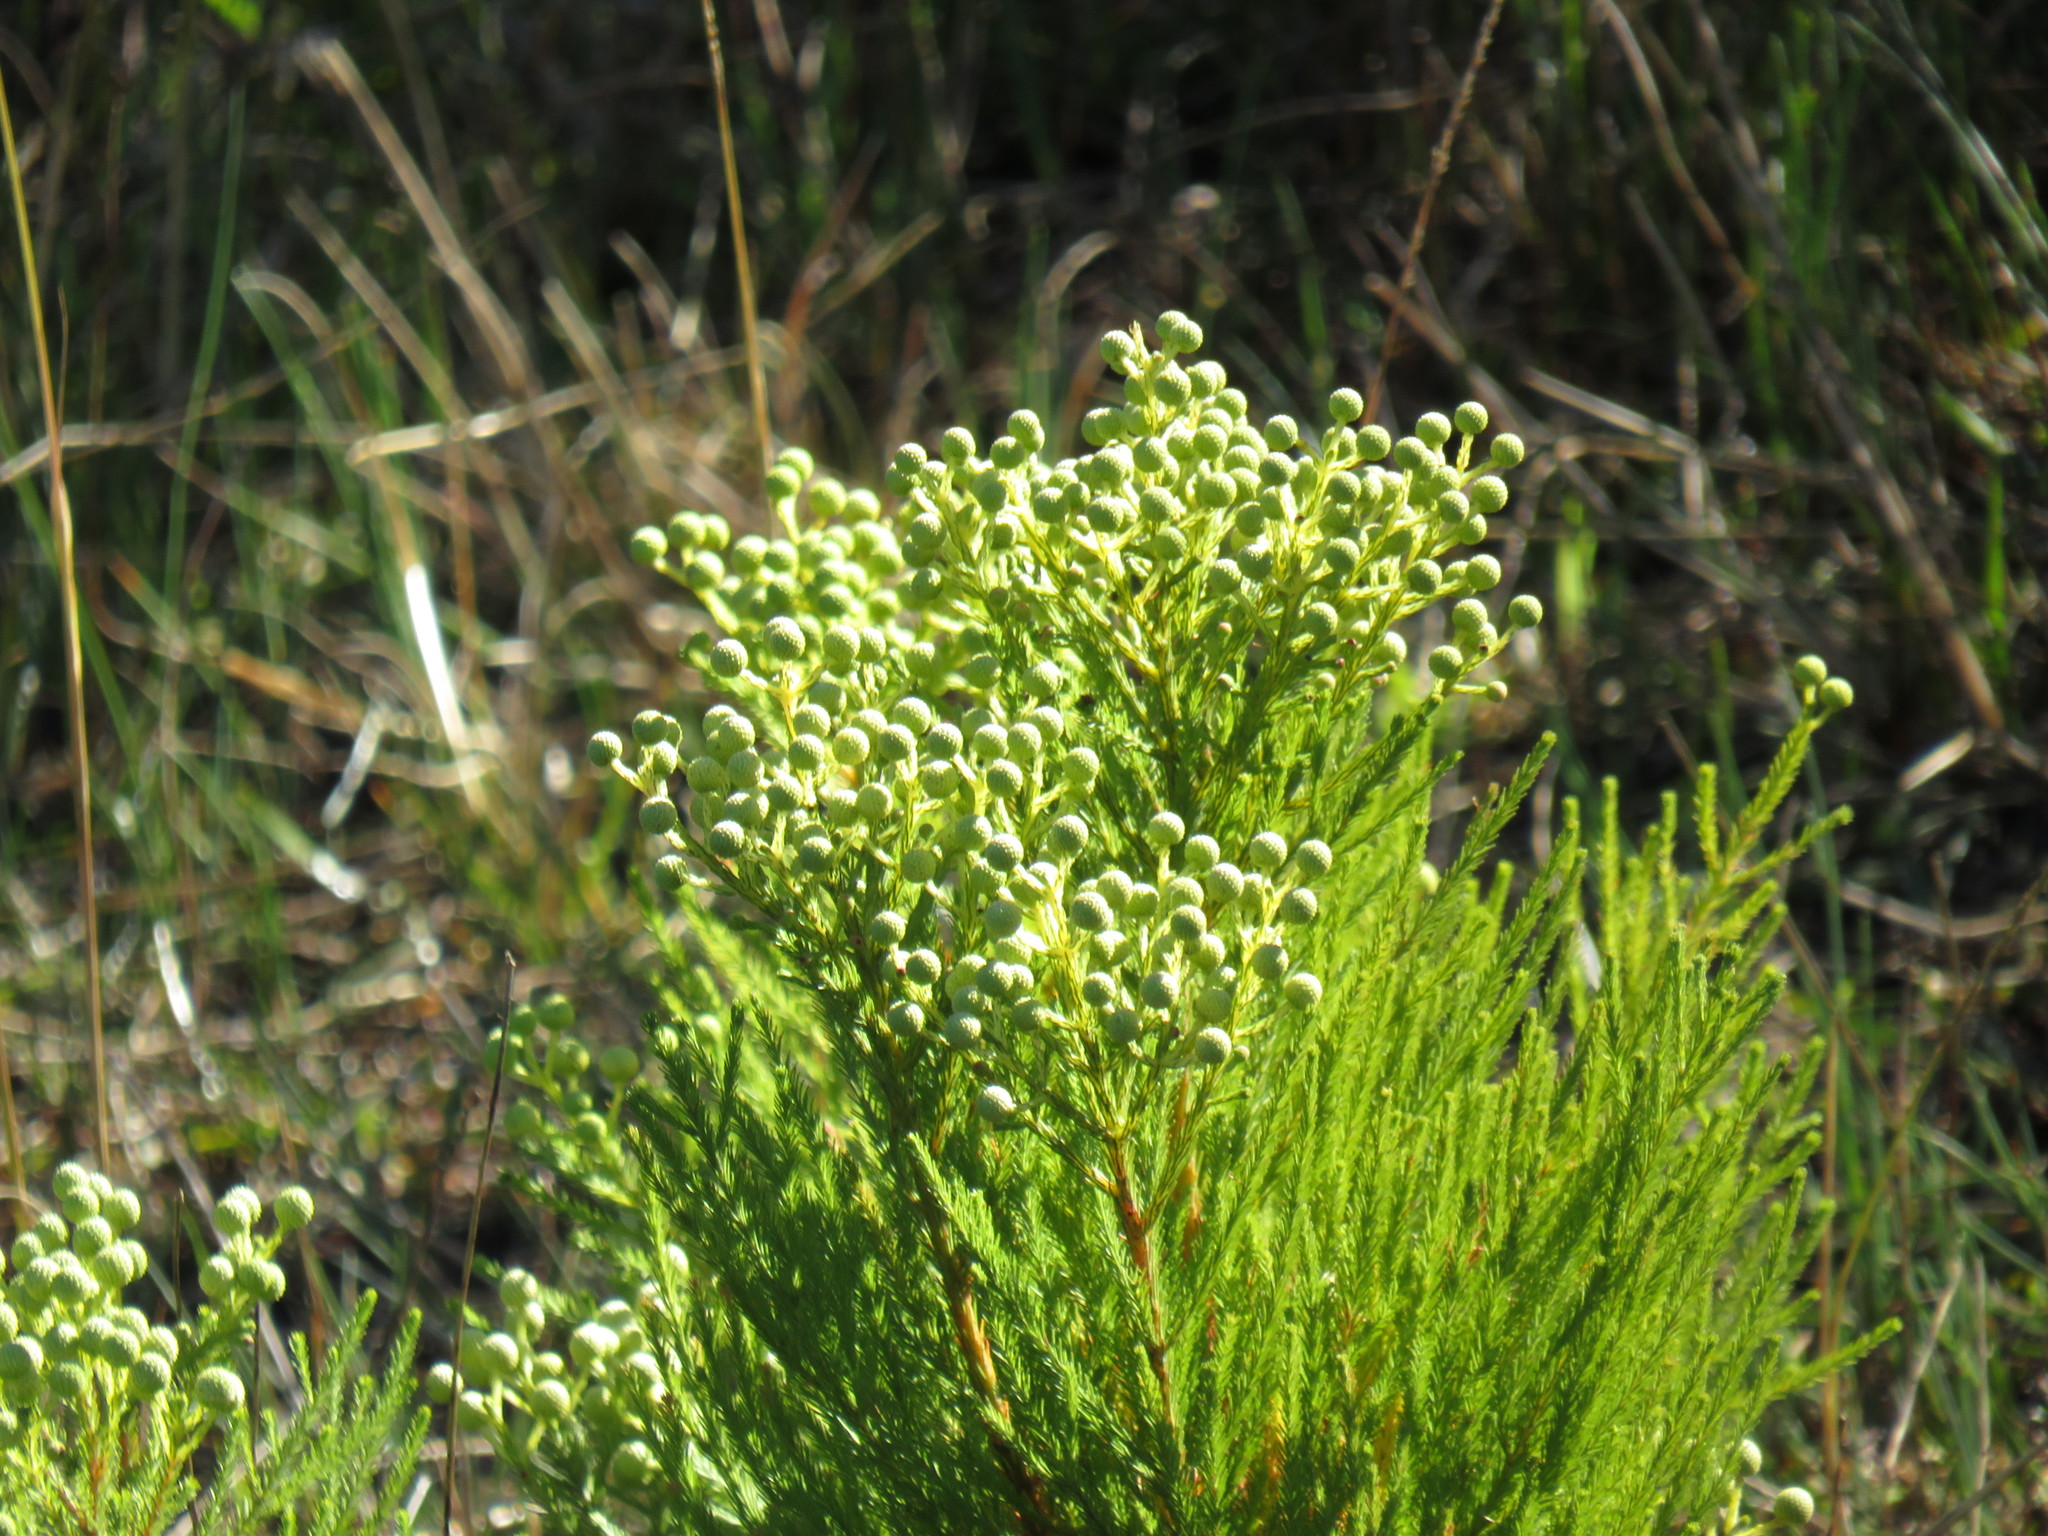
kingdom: Plantae
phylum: Tracheophyta
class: Magnoliopsida
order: Bruniales
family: Bruniaceae
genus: Berzelia
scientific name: Berzelia lanuginosa
